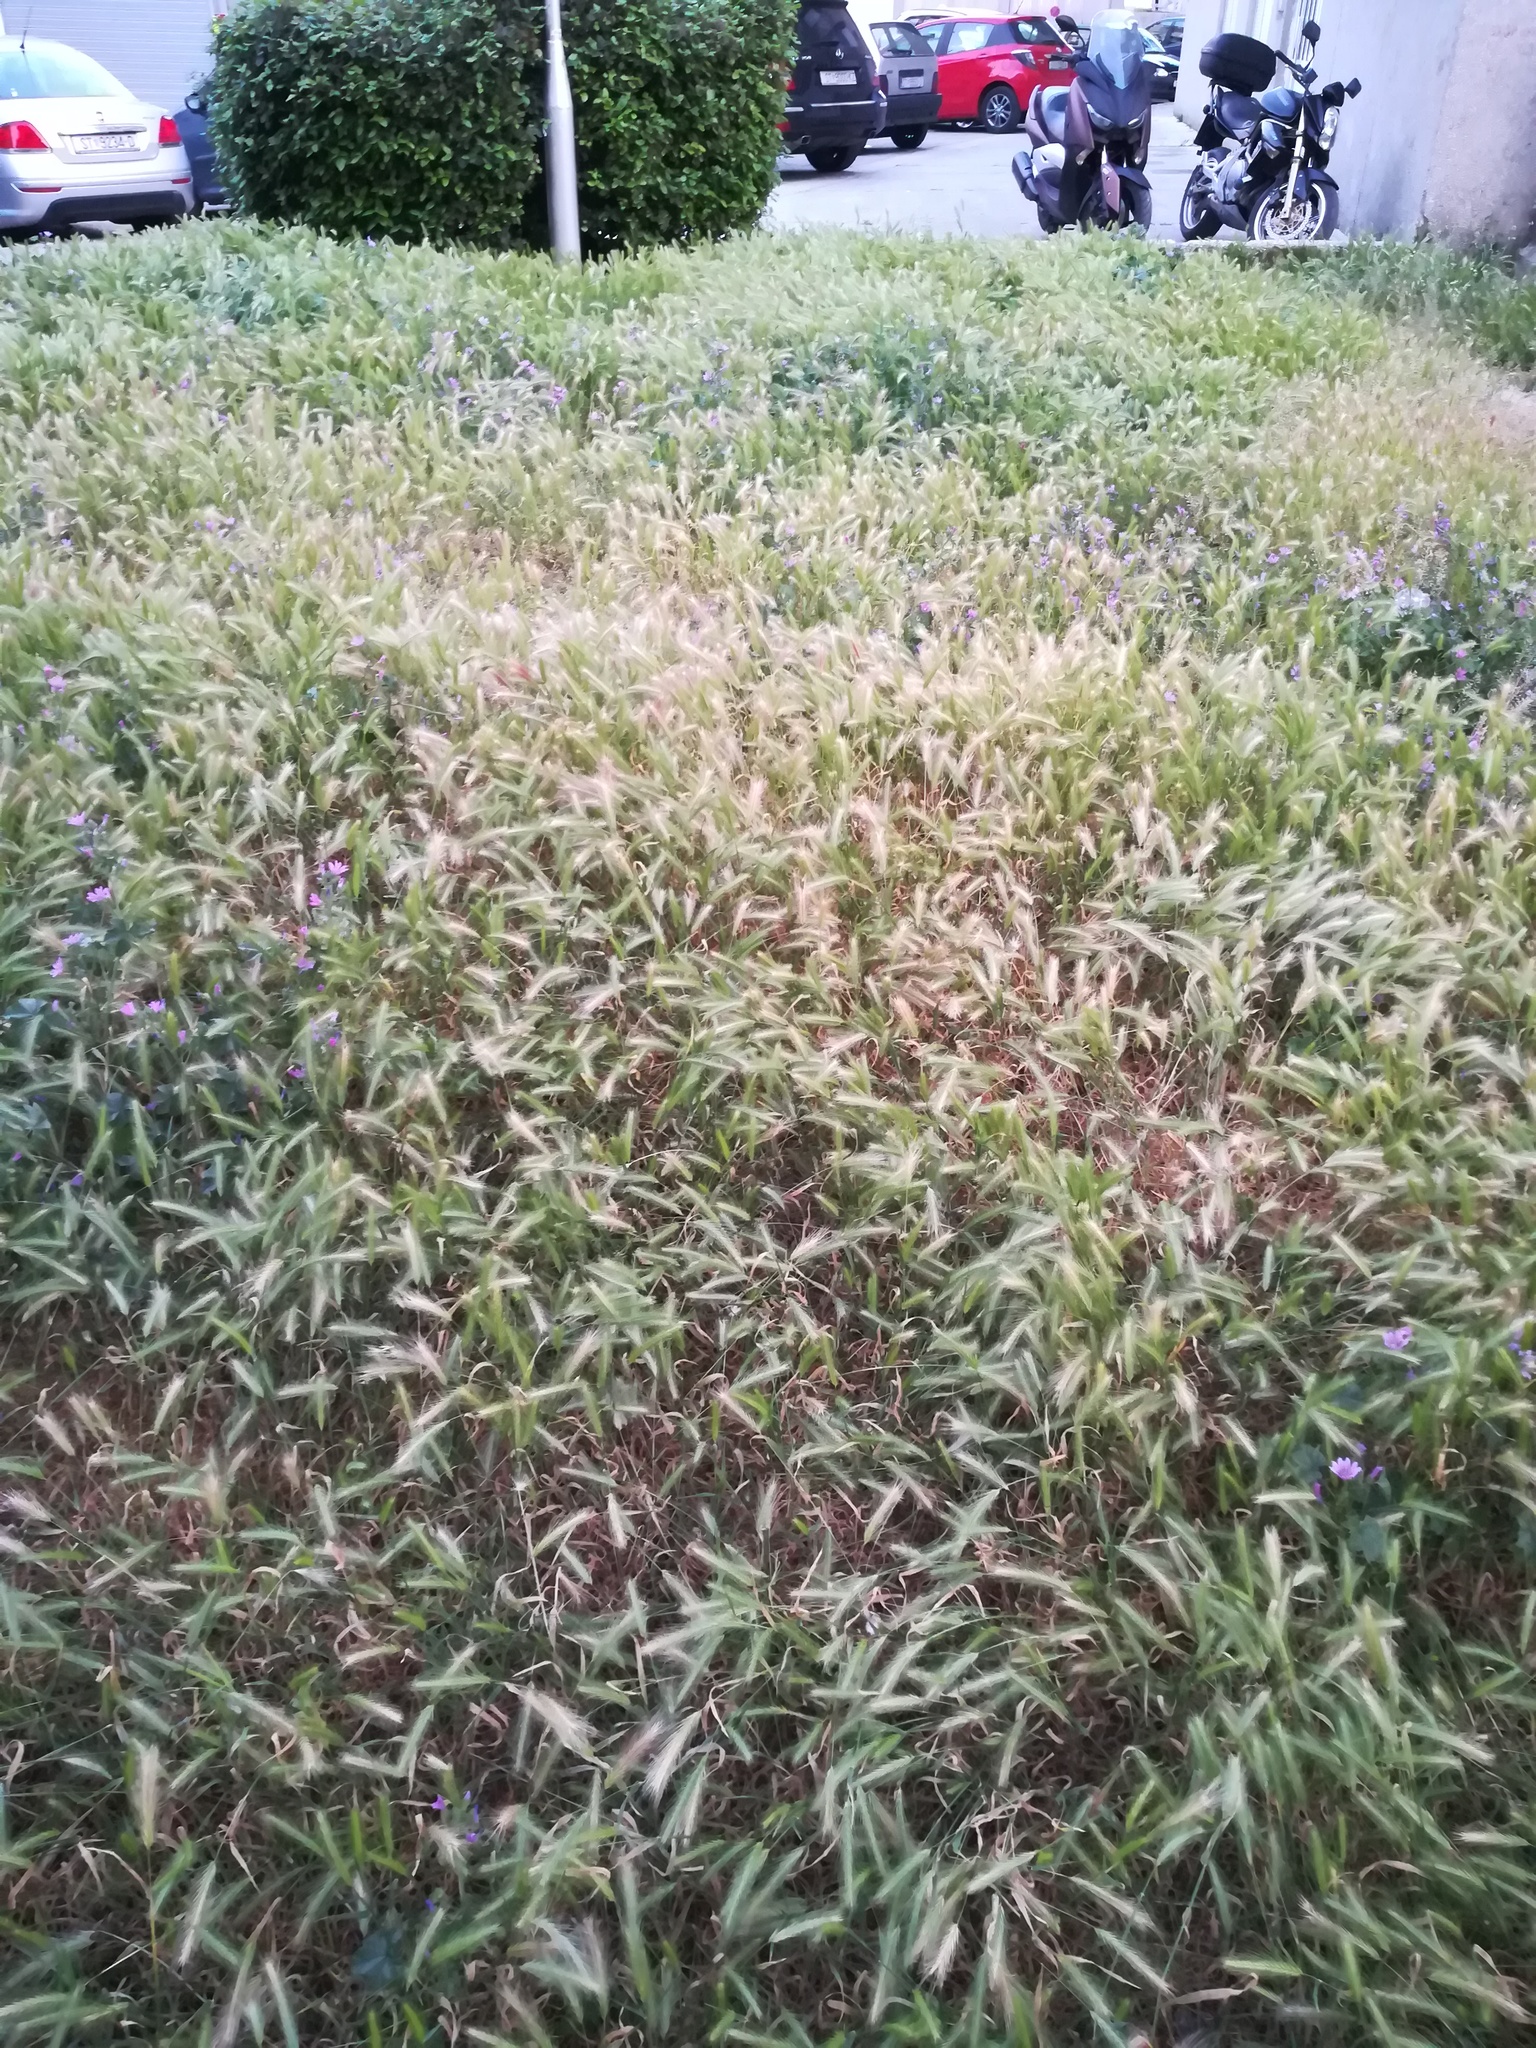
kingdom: Plantae
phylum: Tracheophyta
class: Liliopsida
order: Poales
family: Poaceae
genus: Hordeum
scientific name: Hordeum murinum
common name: Wall barley
